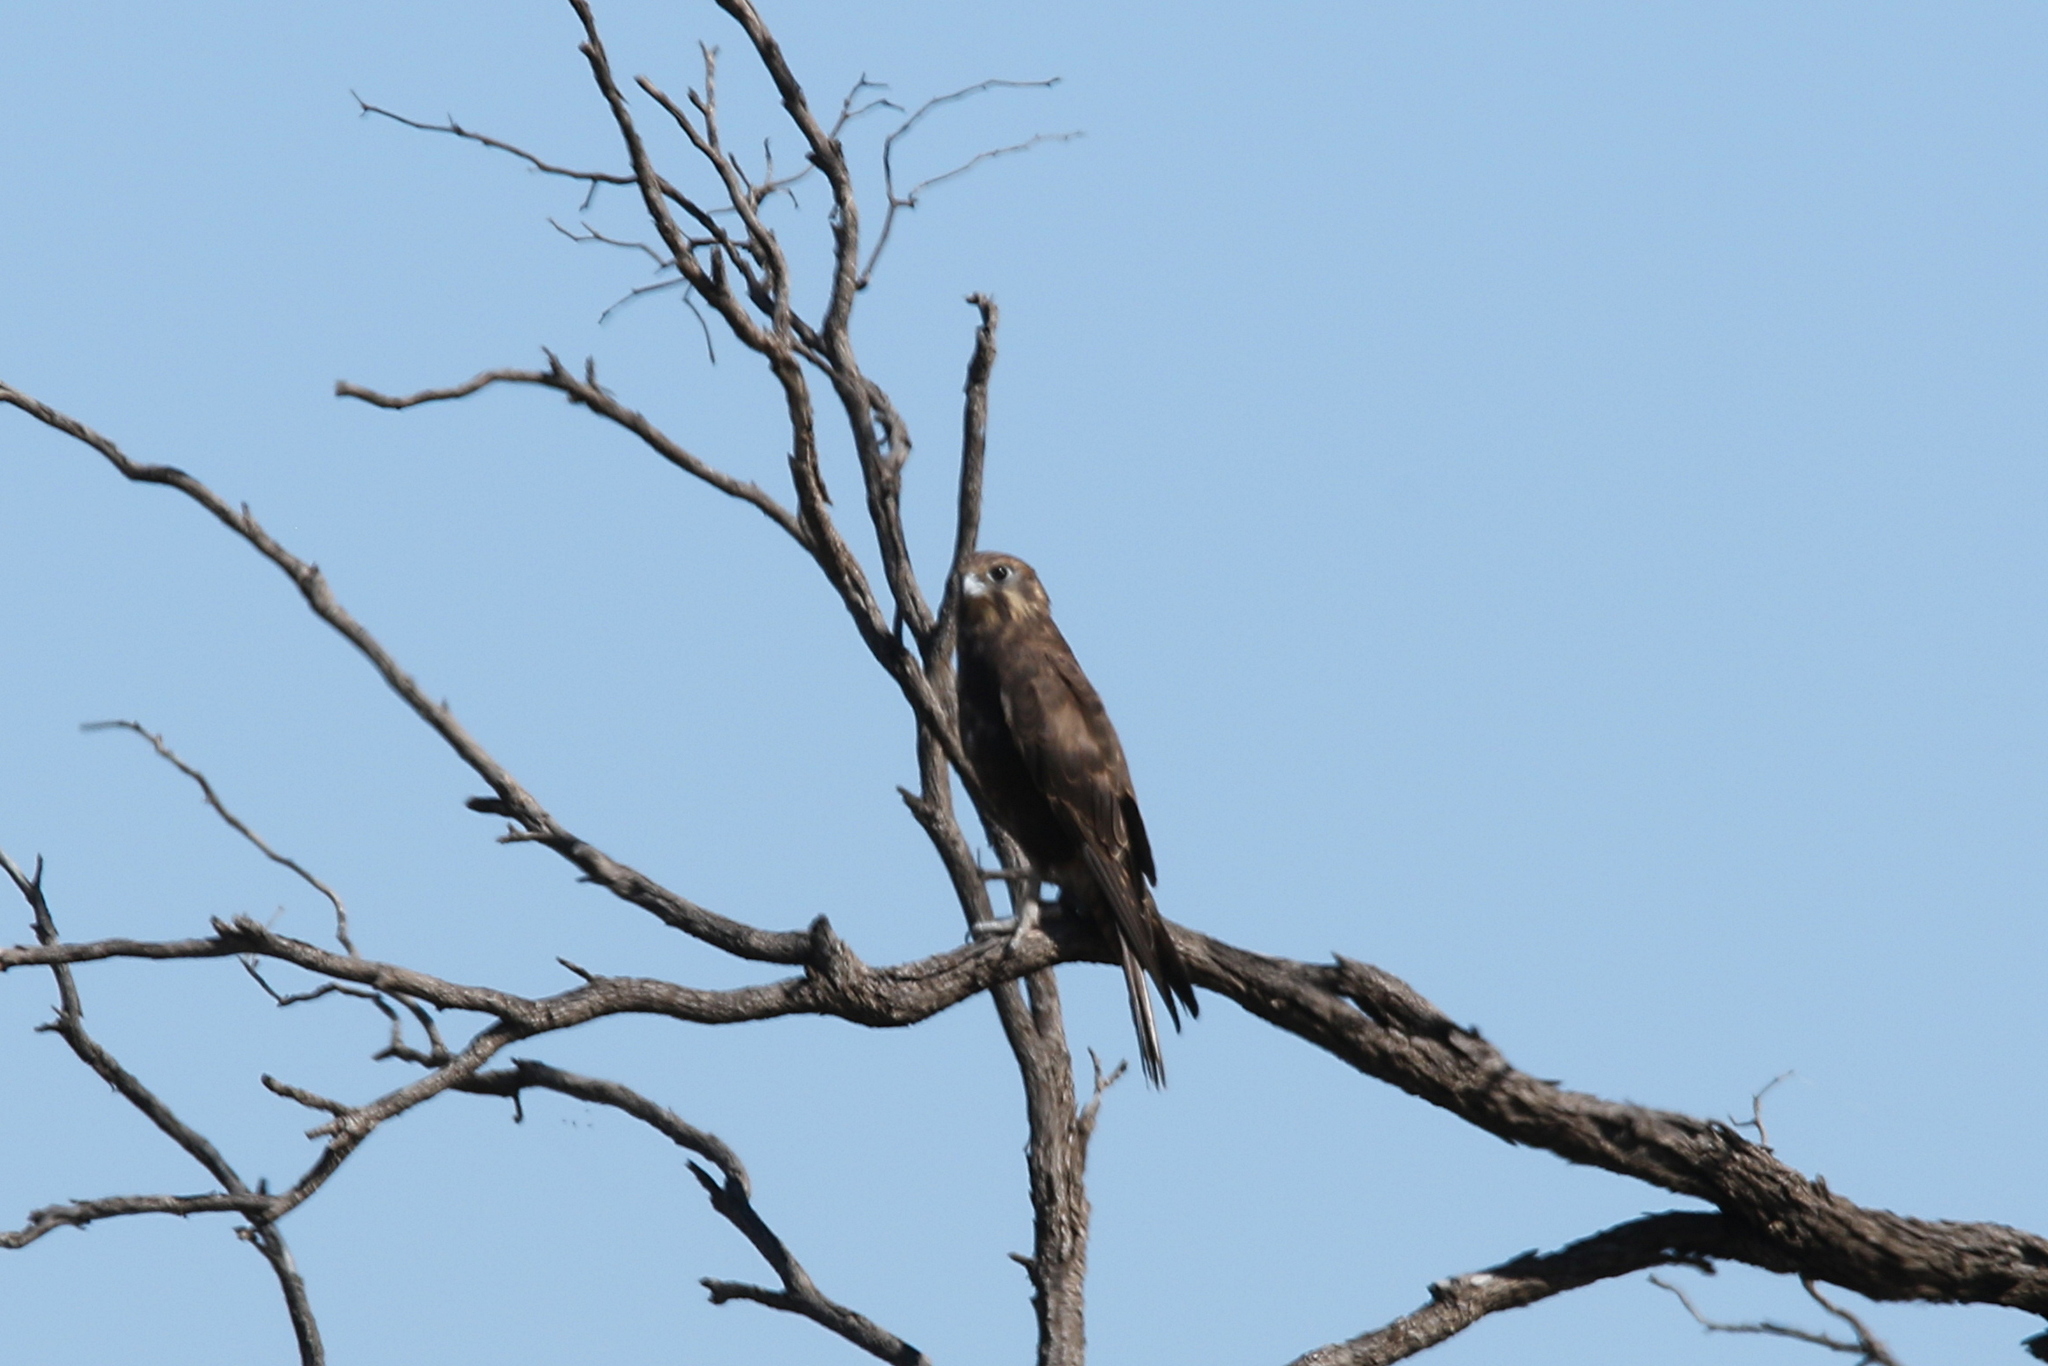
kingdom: Animalia
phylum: Chordata
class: Aves
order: Falconiformes
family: Falconidae
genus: Falco
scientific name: Falco berigora
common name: Brown falcon
